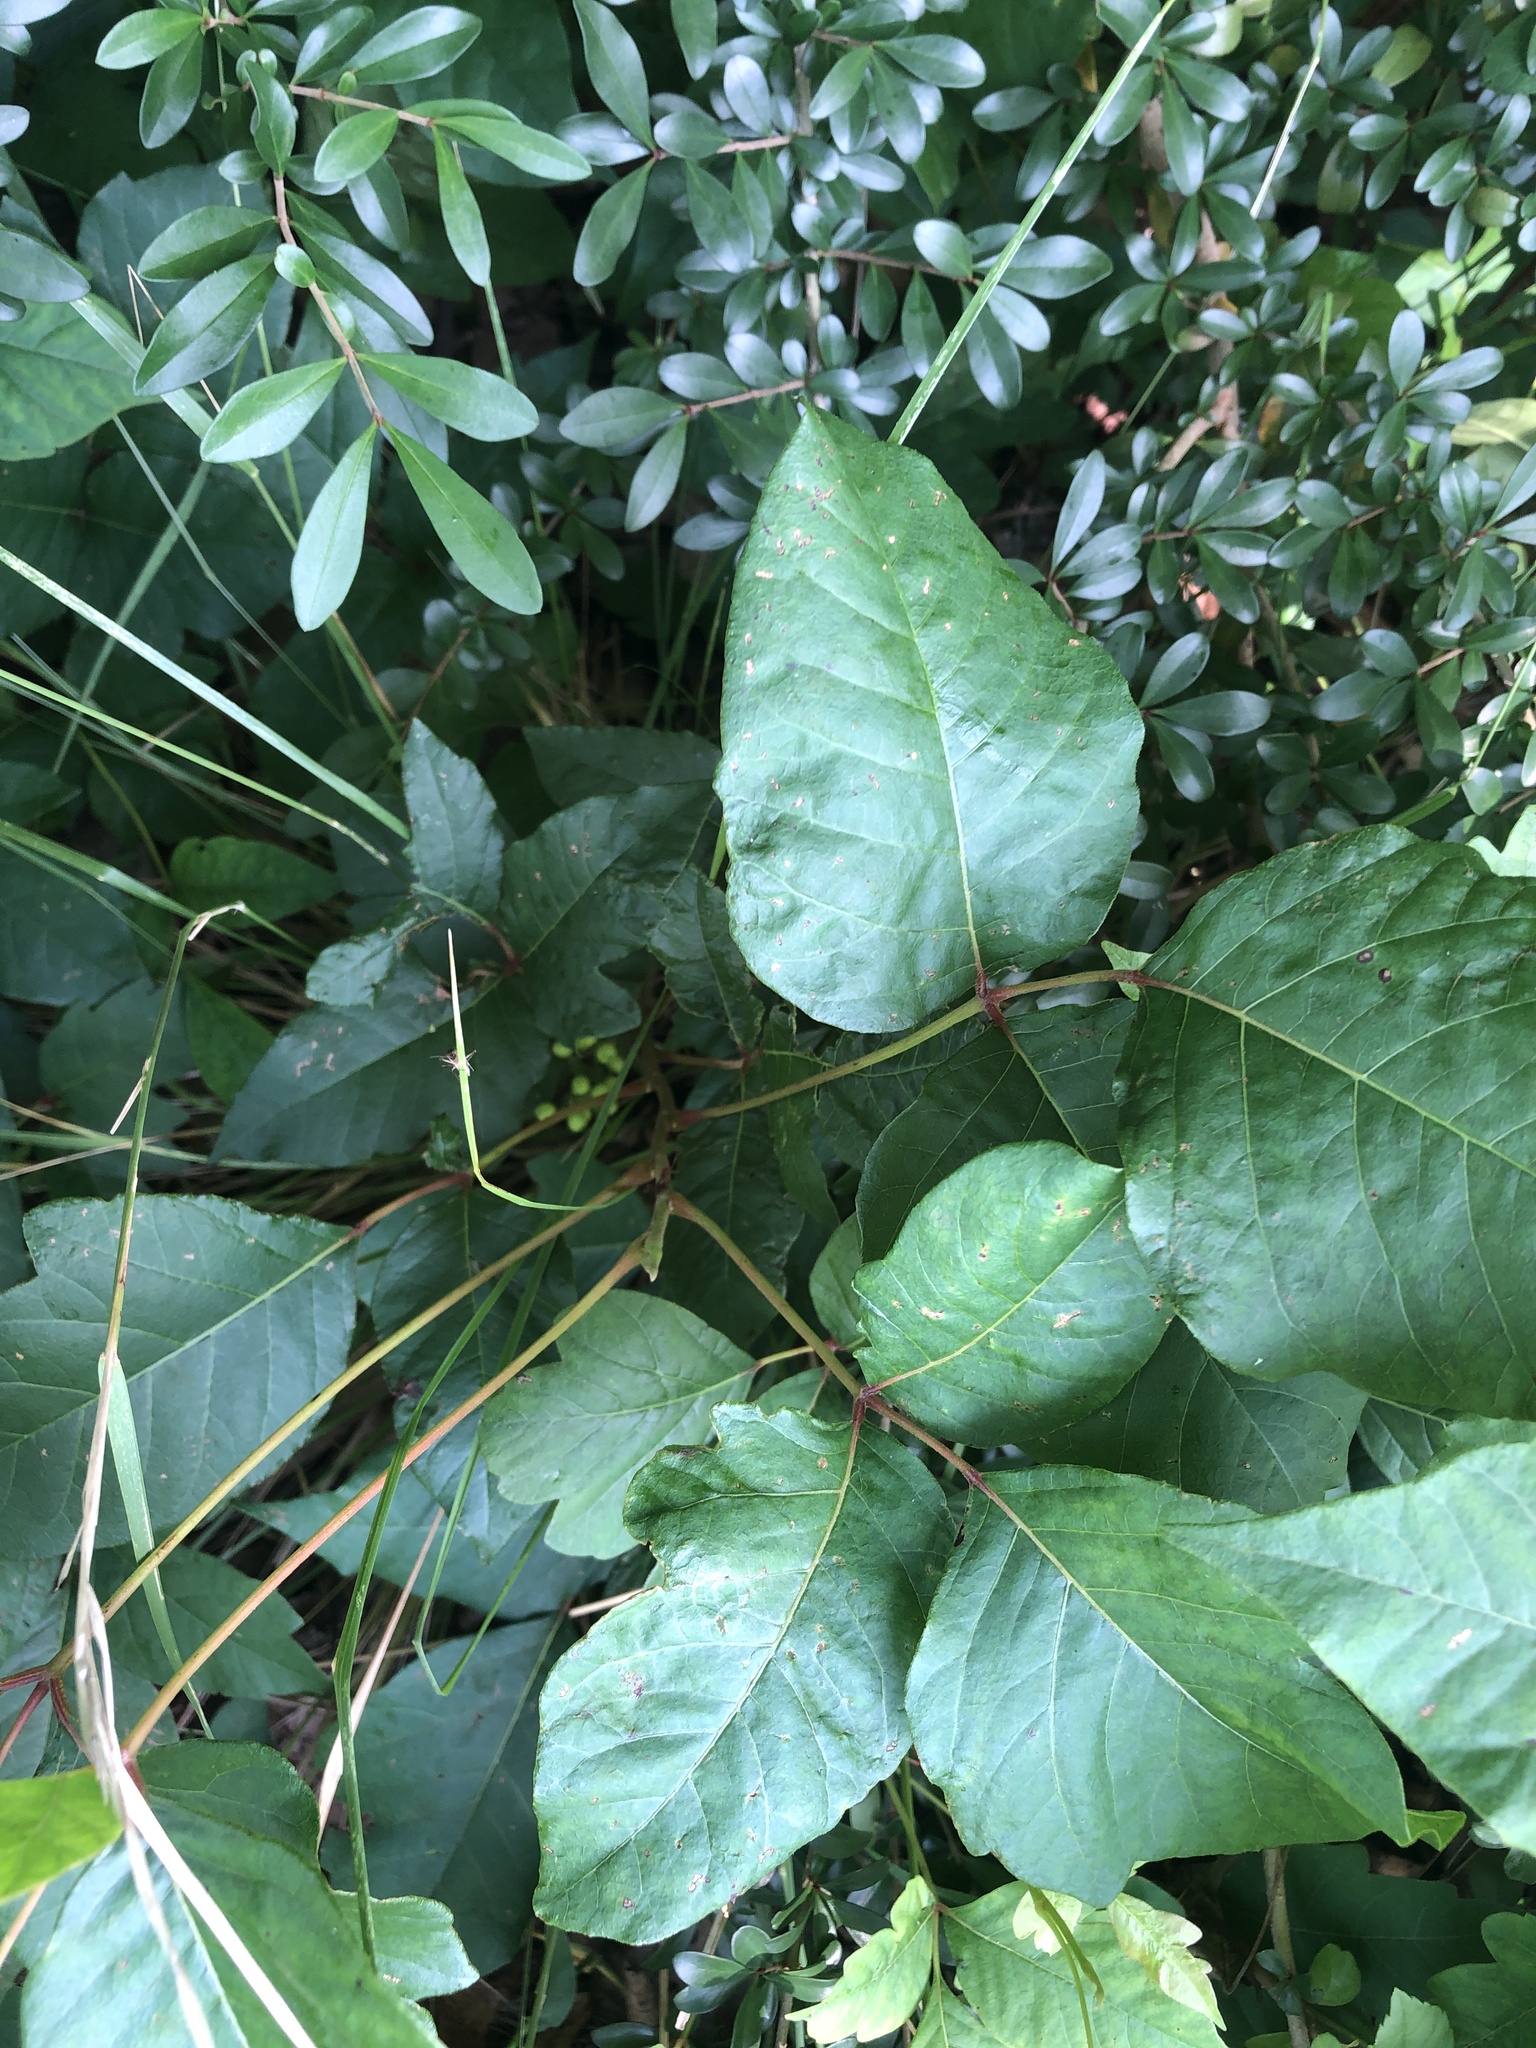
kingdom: Plantae
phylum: Tracheophyta
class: Magnoliopsida
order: Sapindales
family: Anacardiaceae
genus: Toxicodendron
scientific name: Toxicodendron radicans
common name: Poison ivy
